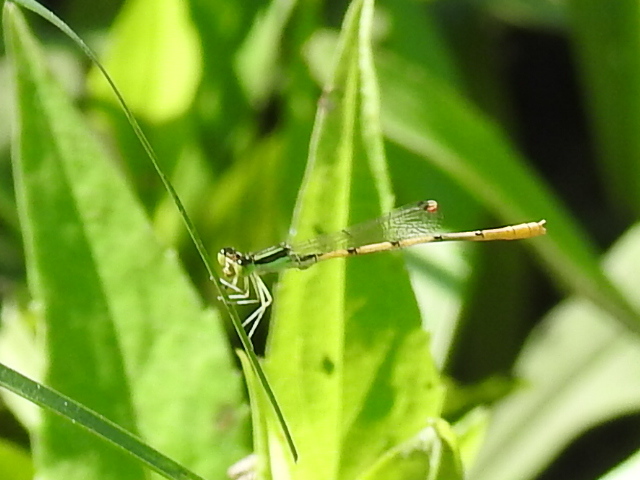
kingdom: Animalia
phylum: Arthropoda
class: Insecta
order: Odonata
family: Coenagrionidae
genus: Ischnura
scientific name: Ischnura hastata
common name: Citrine forktail
